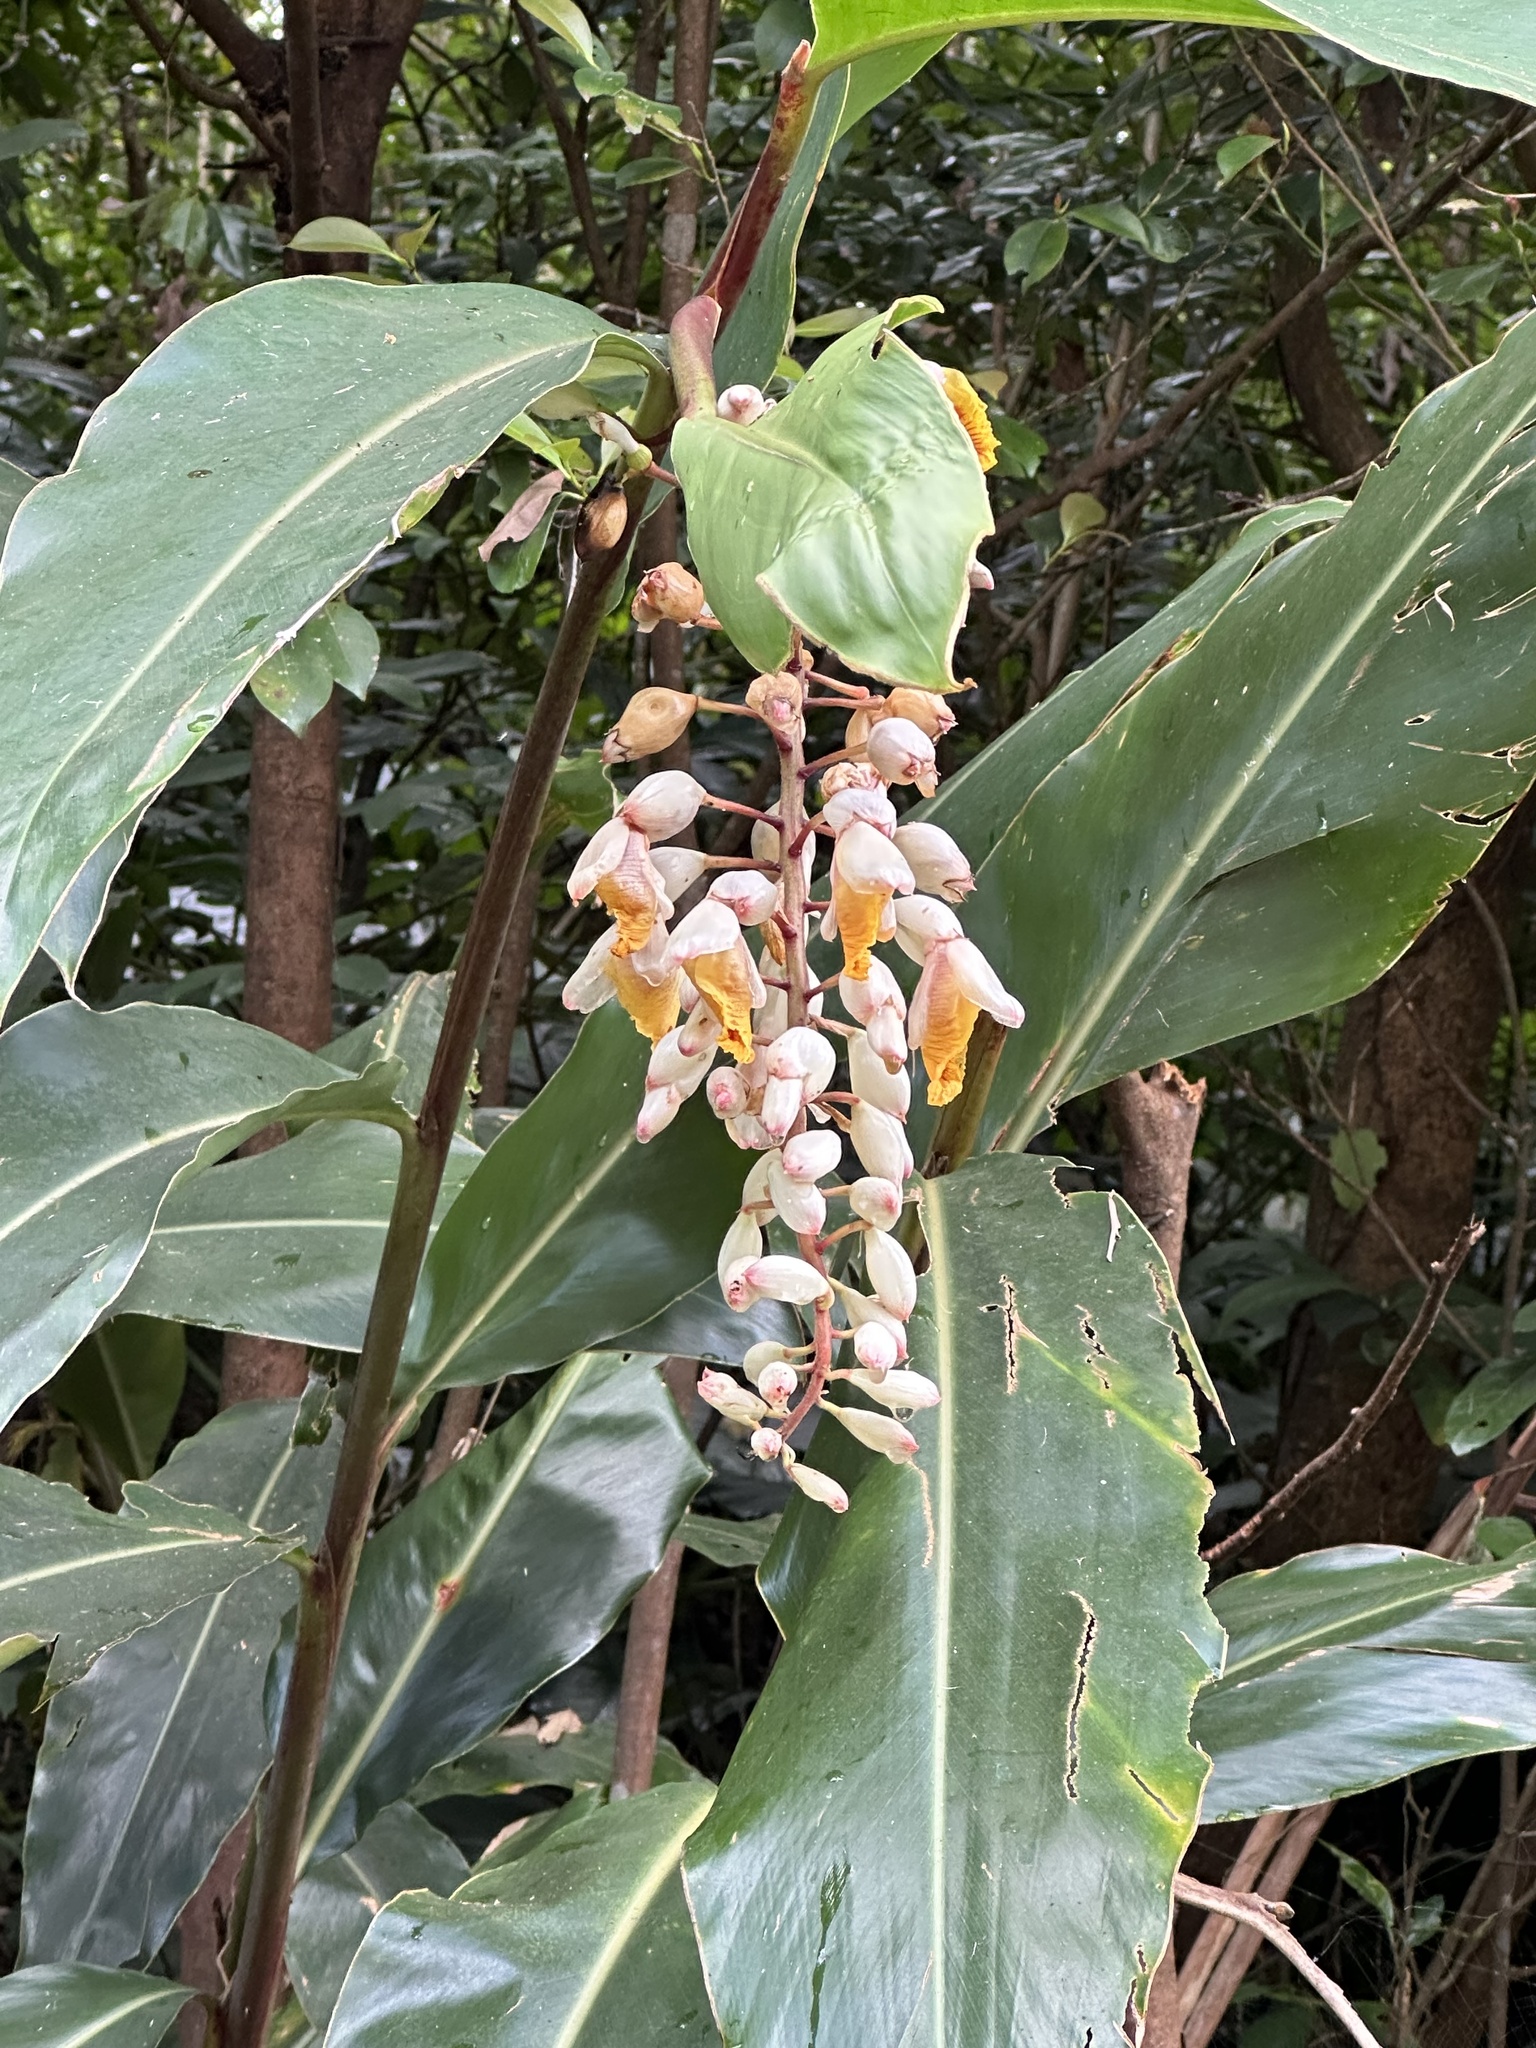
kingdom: Plantae
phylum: Tracheophyta
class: Liliopsida
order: Zingiberales
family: Zingiberaceae
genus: Alpinia
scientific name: Alpinia zerumbet
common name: Shellplant
